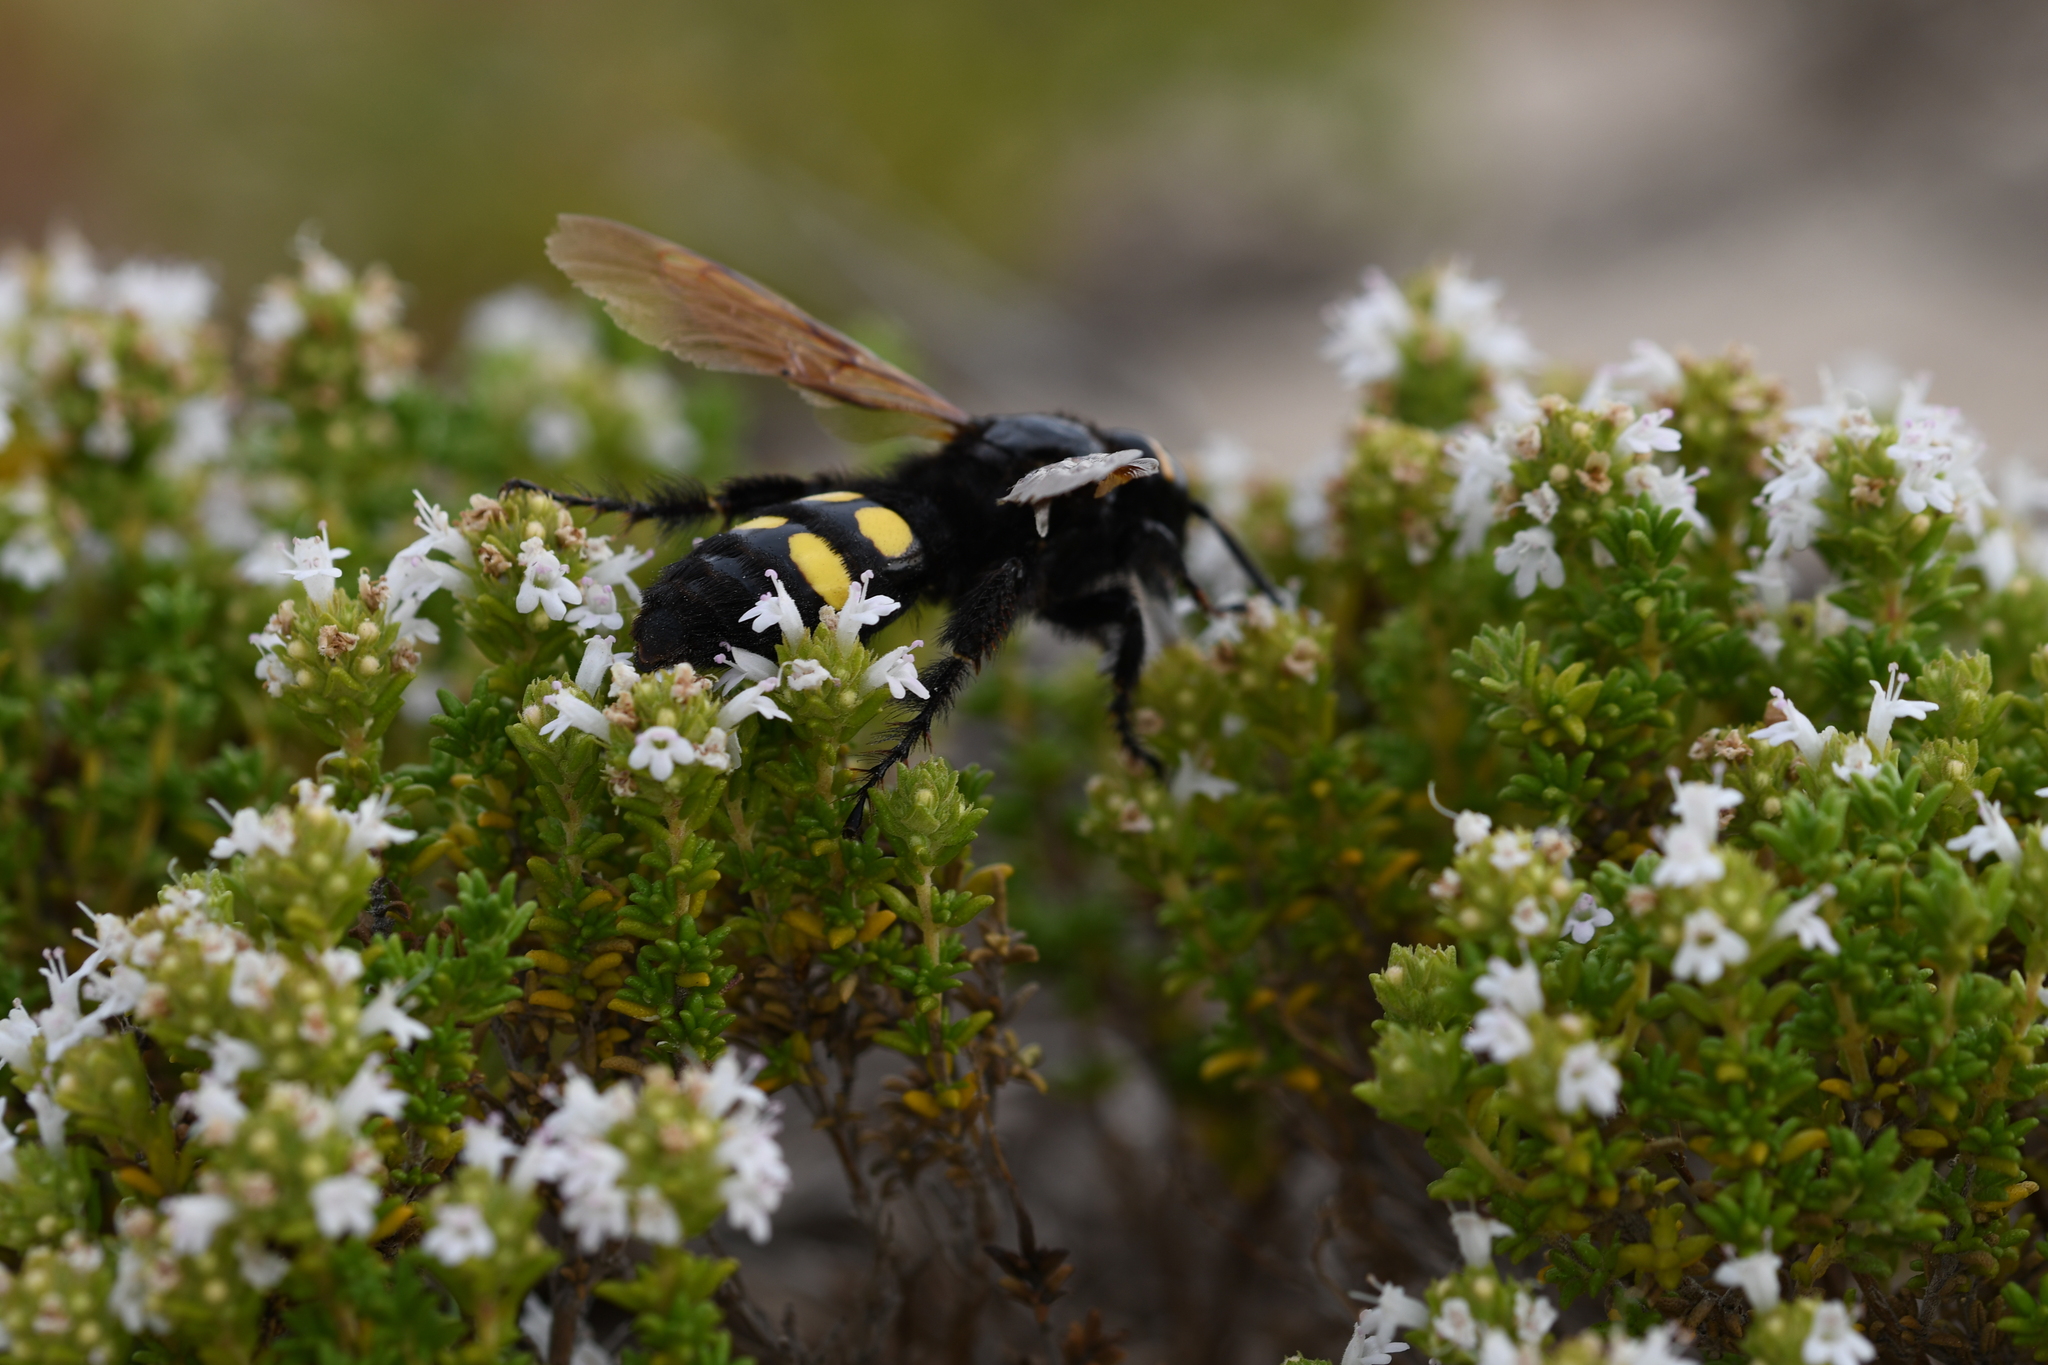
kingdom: Plantae
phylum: Tracheophyta
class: Magnoliopsida
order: Lamiales
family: Lamiaceae
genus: Thymus
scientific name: Thymus carnosus
